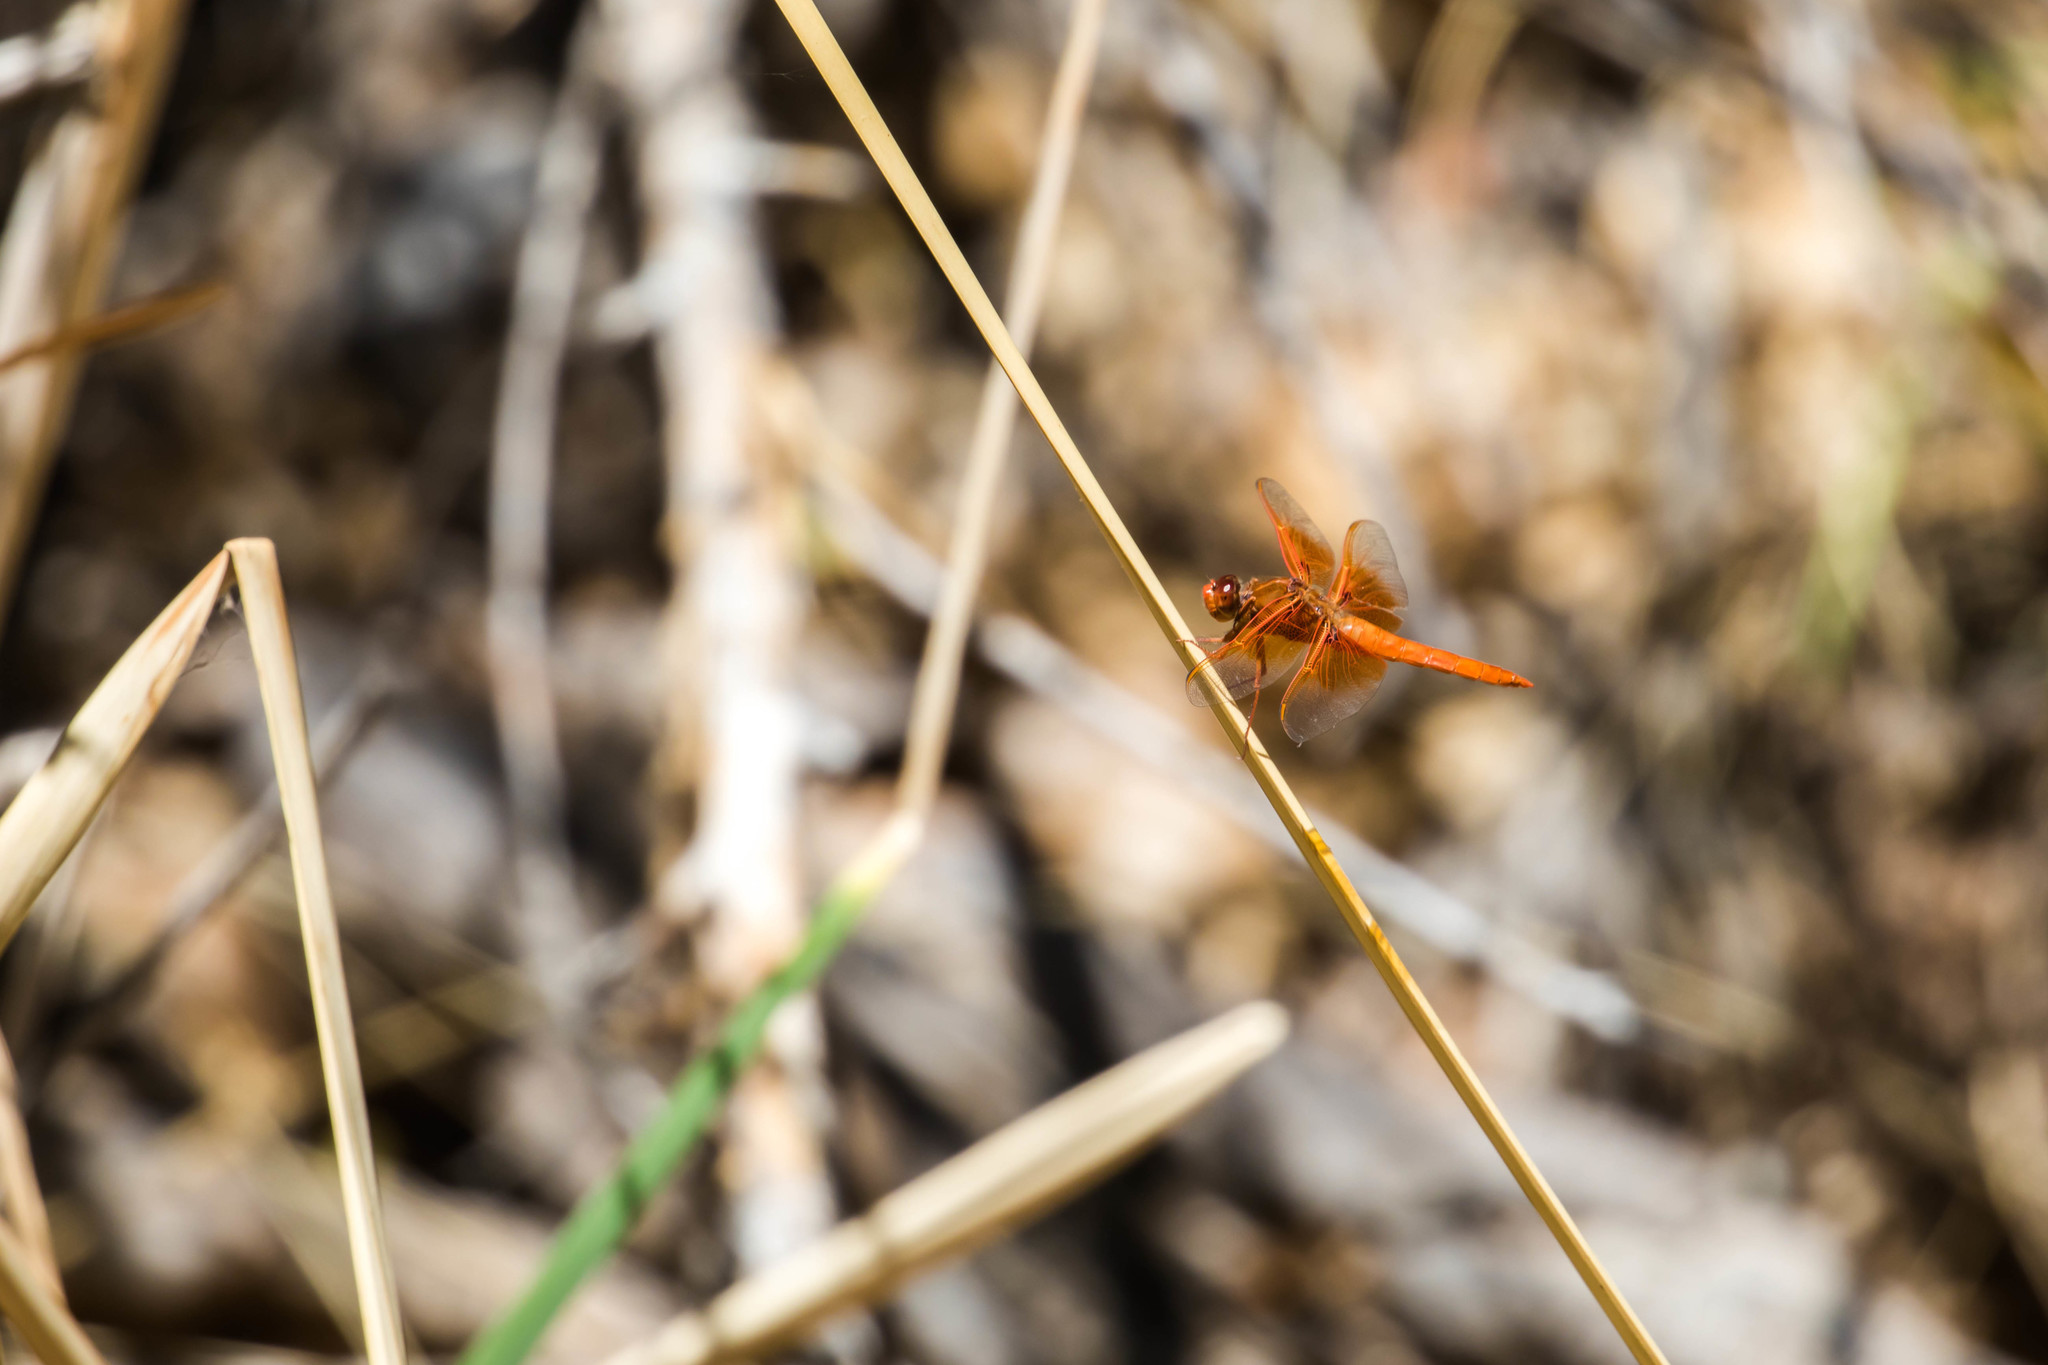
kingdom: Animalia
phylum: Arthropoda
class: Insecta
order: Odonata
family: Libellulidae
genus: Libellula
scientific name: Libellula saturata
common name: Flame skimmer
